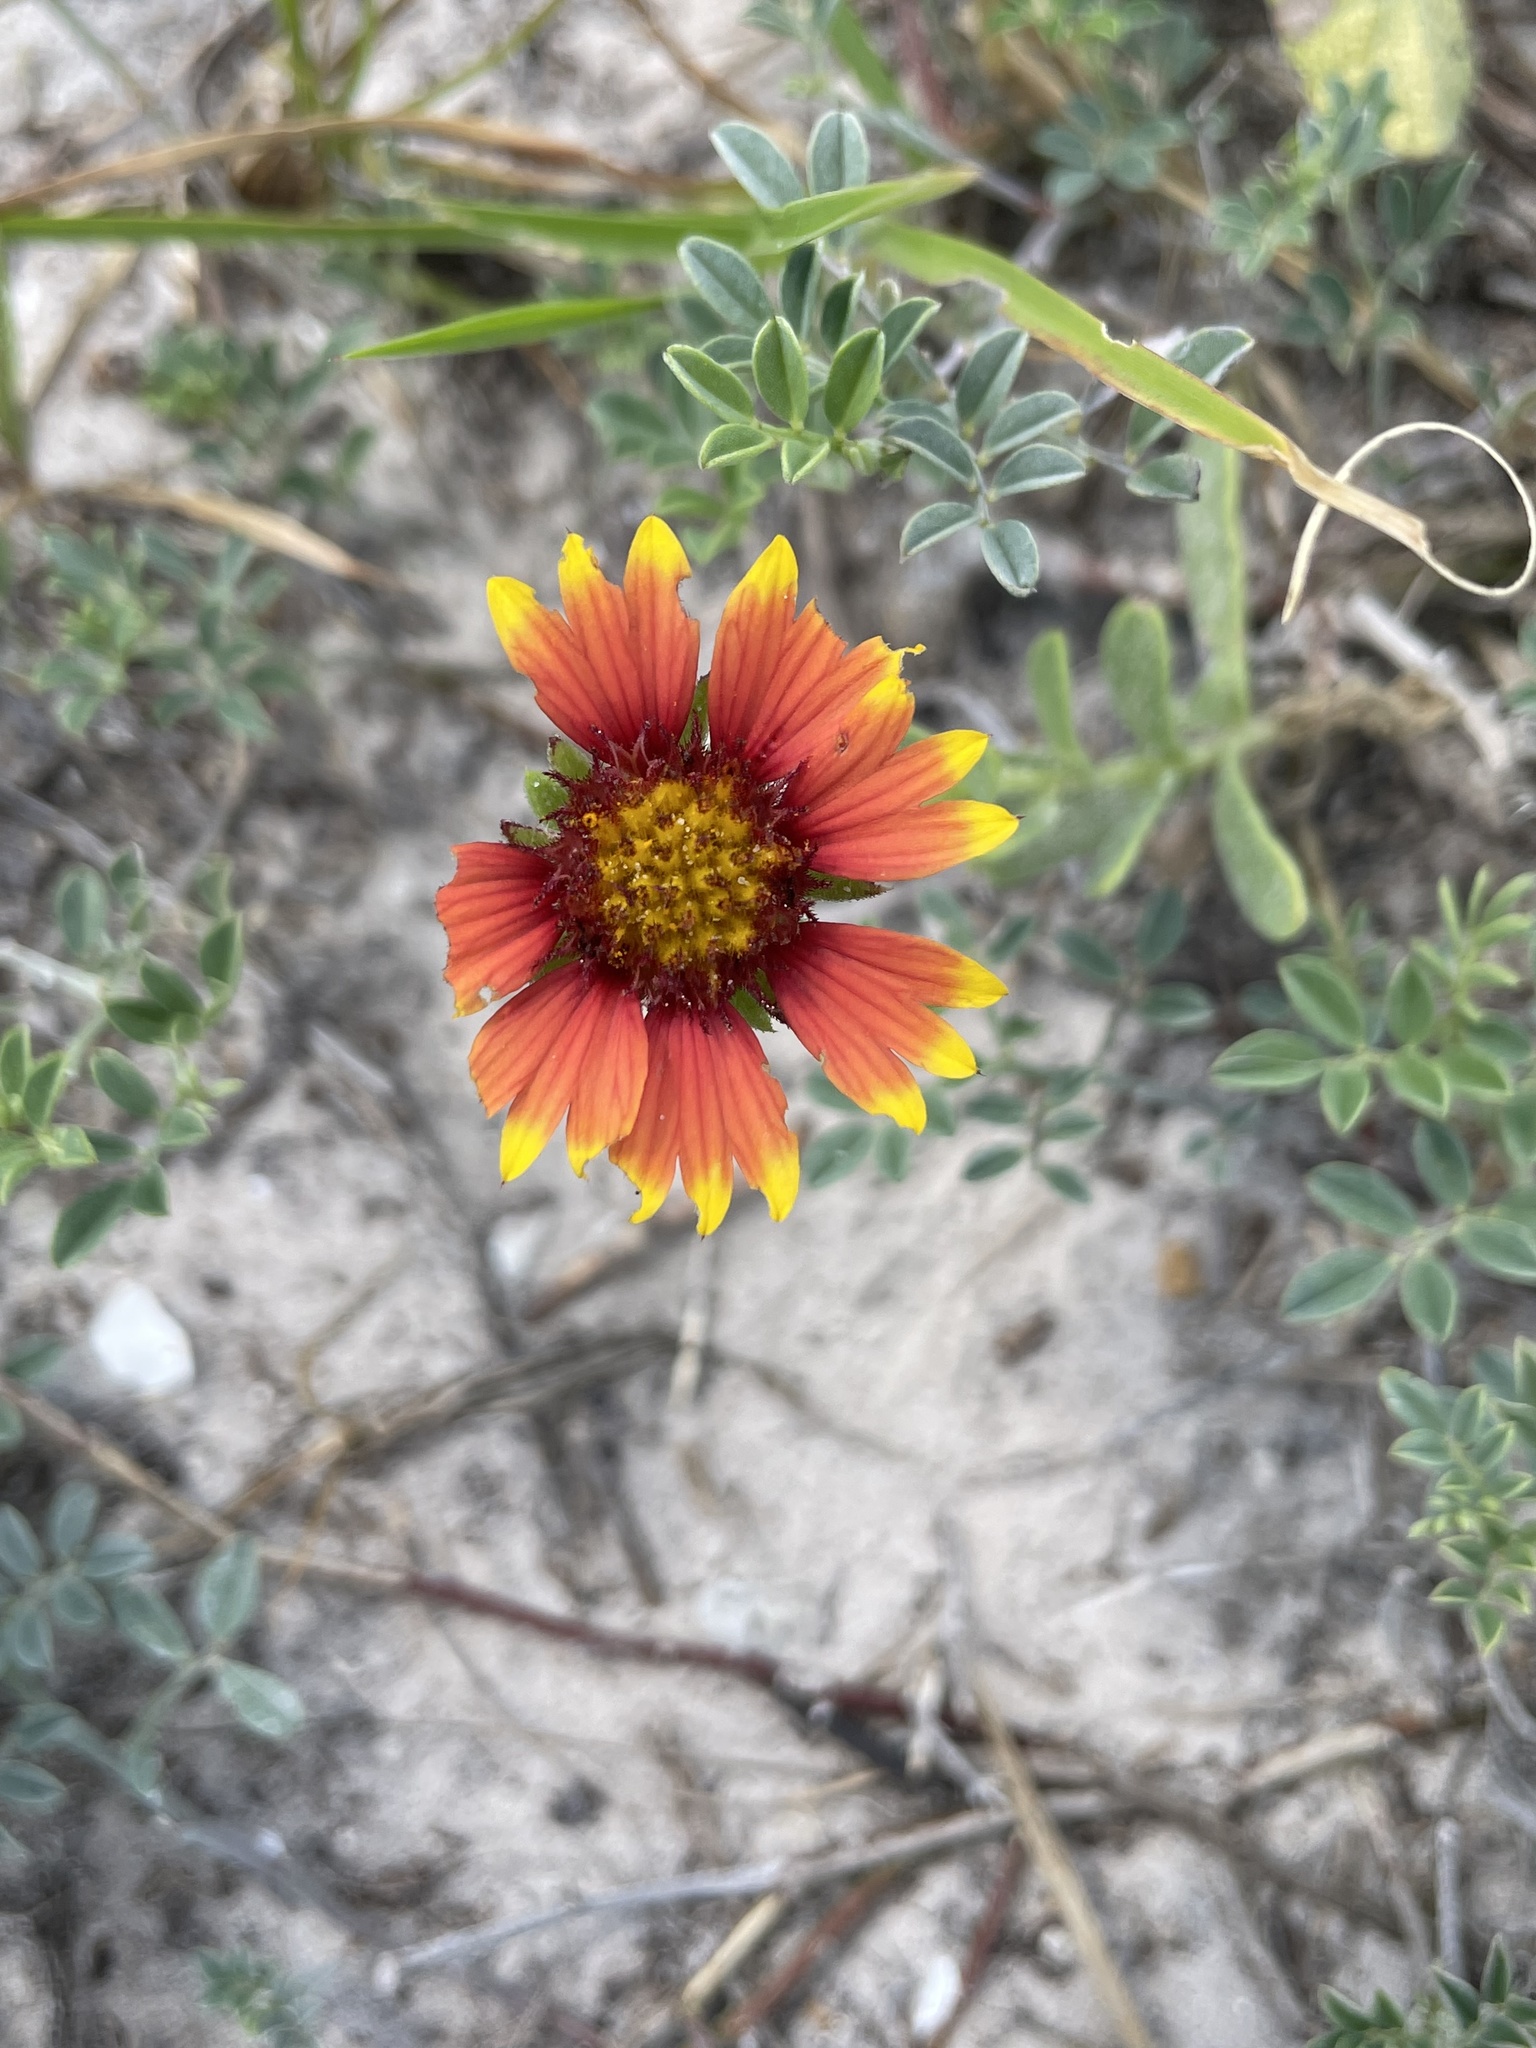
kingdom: Plantae
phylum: Tracheophyta
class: Magnoliopsida
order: Asterales
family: Asteraceae
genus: Gaillardia
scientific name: Gaillardia pulchella
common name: Firewheel
